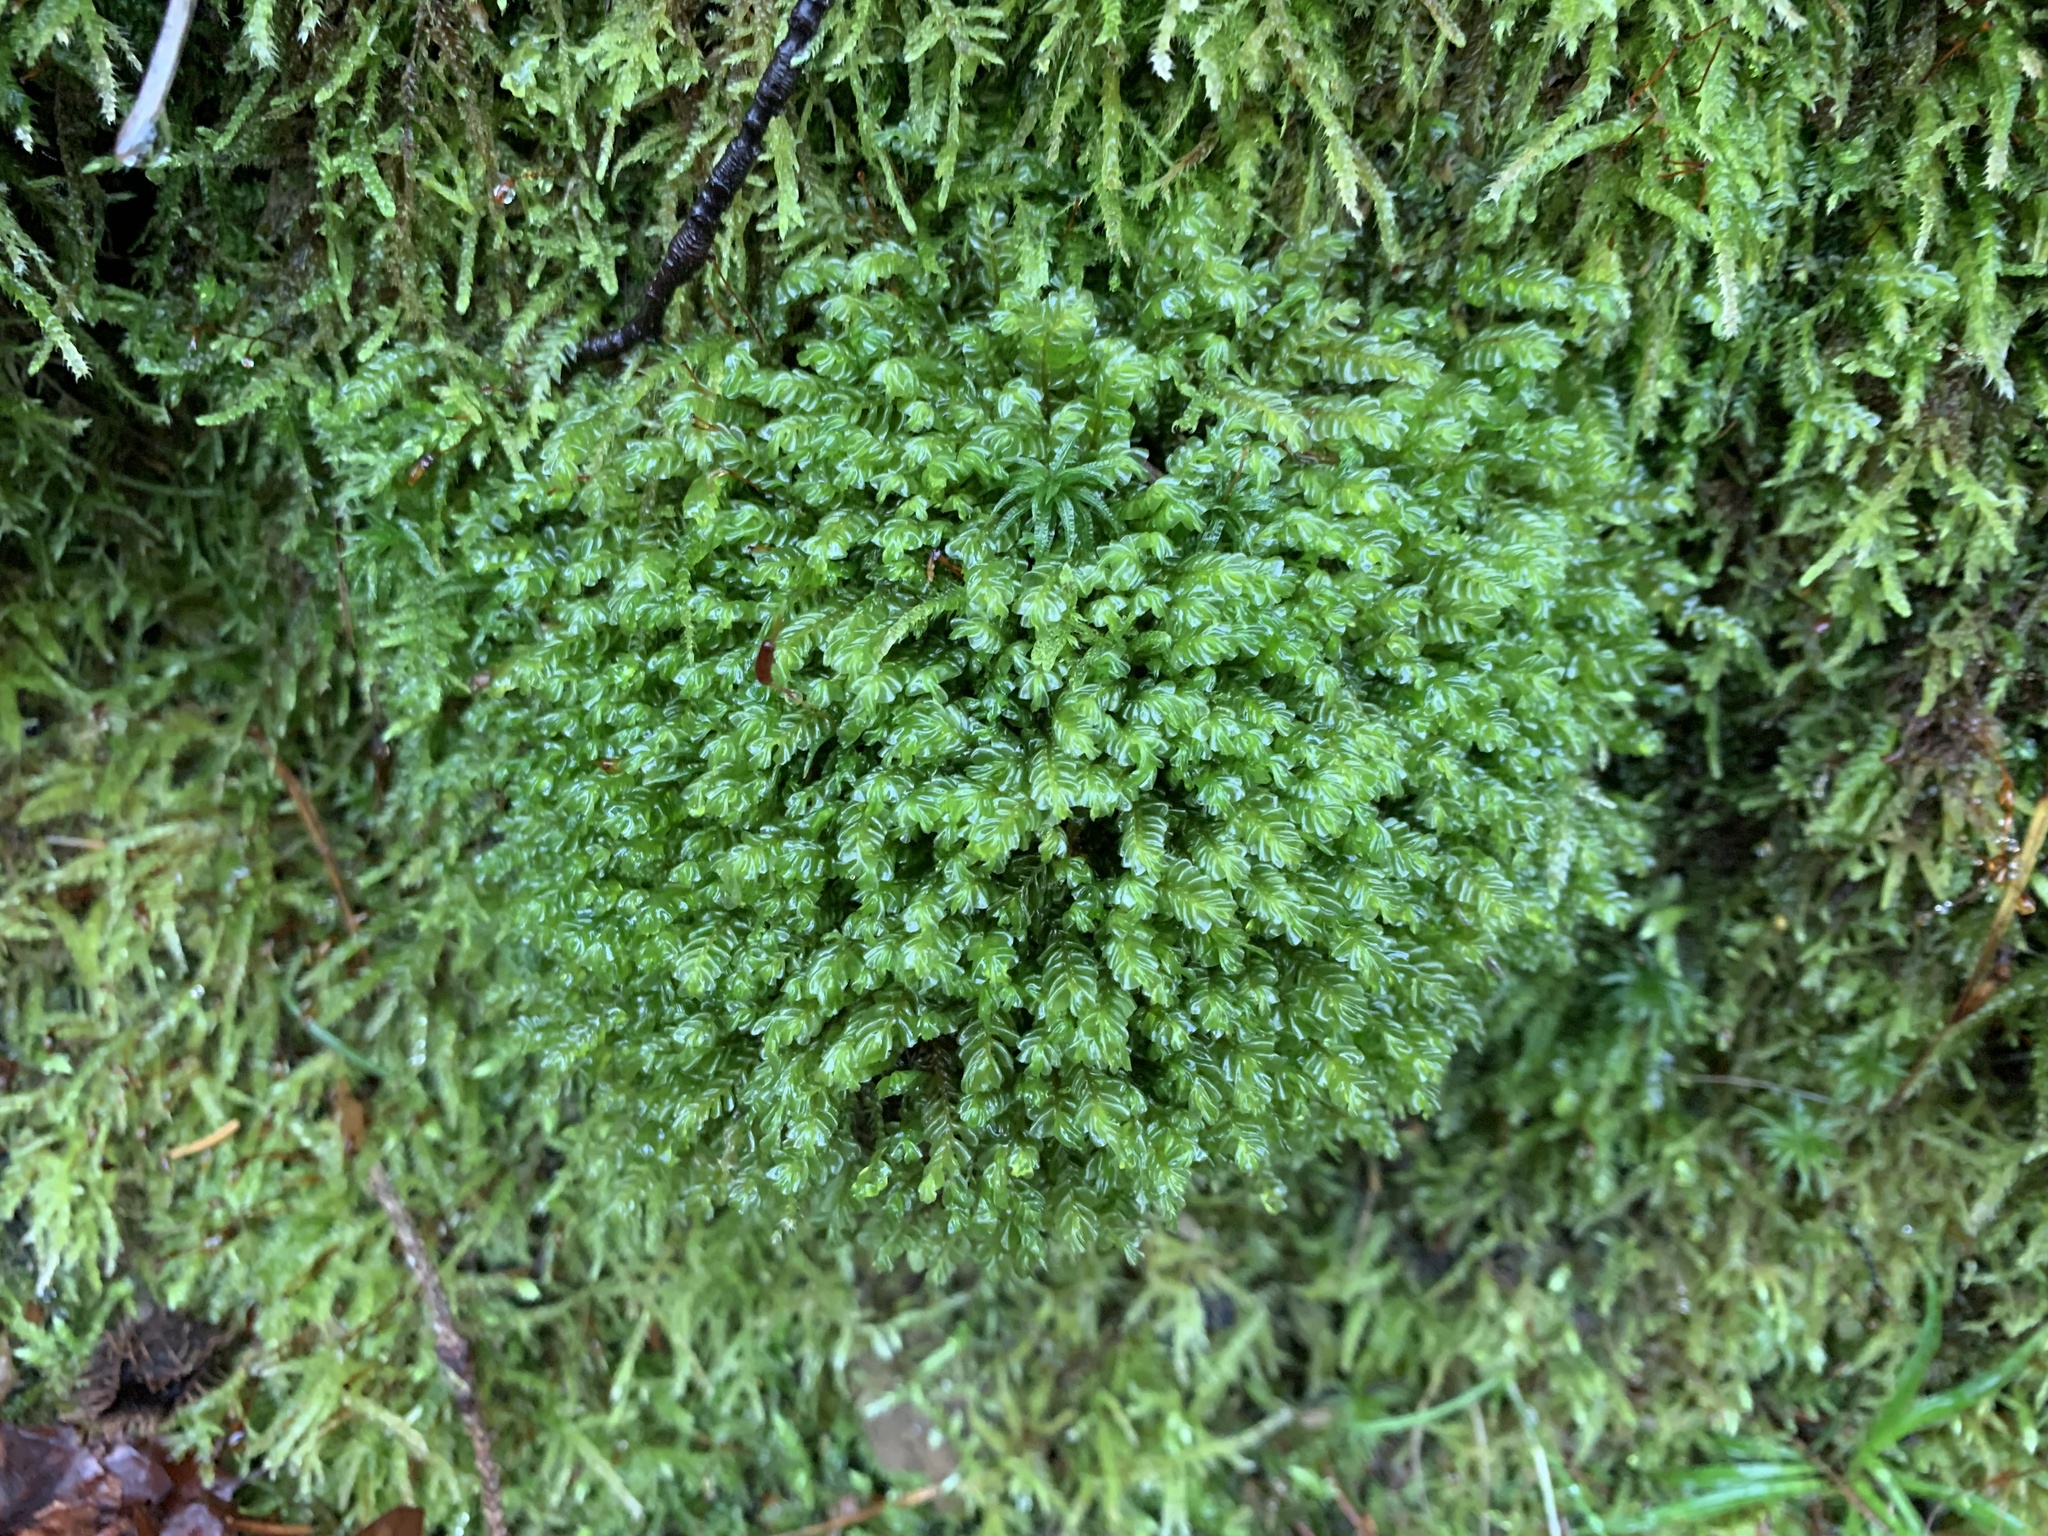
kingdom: Plantae
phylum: Marchantiophyta
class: Jungermanniopsida
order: Jungermanniales
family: Plagiochilaceae
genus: Plagiochila
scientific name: Plagiochila porelloides
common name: Lesser featherwort
